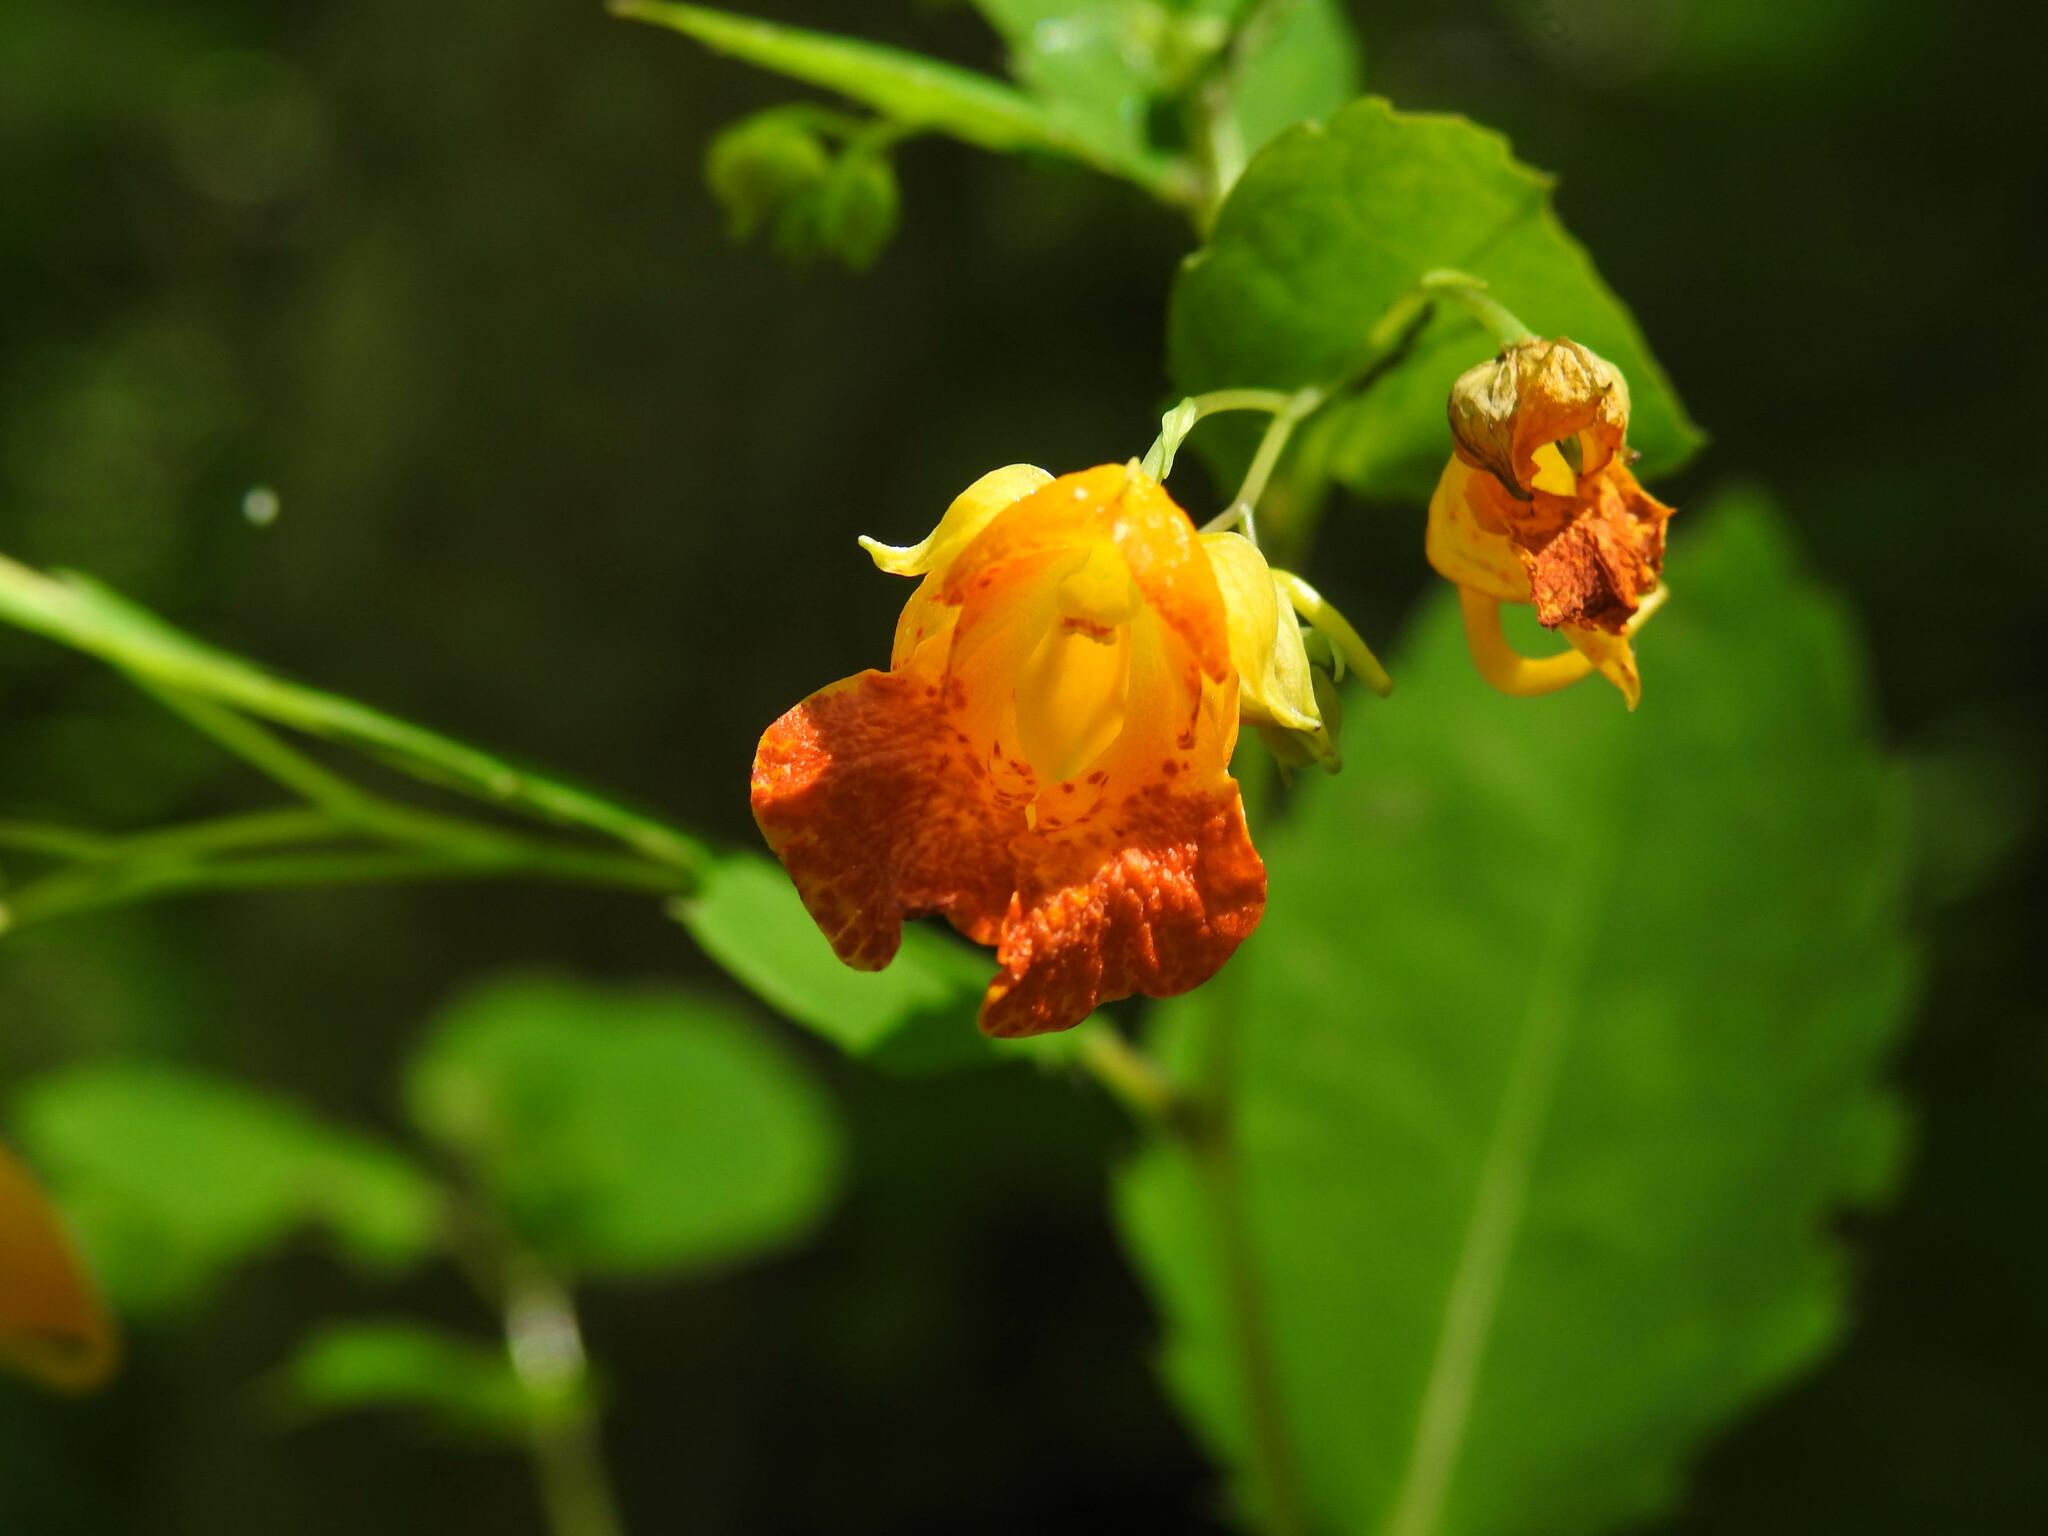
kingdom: Plantae
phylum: Tracheophyta
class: Magnoliopsida
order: Ericales
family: Balsaminaceae
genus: Impatiens
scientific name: Impatiens capensis
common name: Orange balsam
